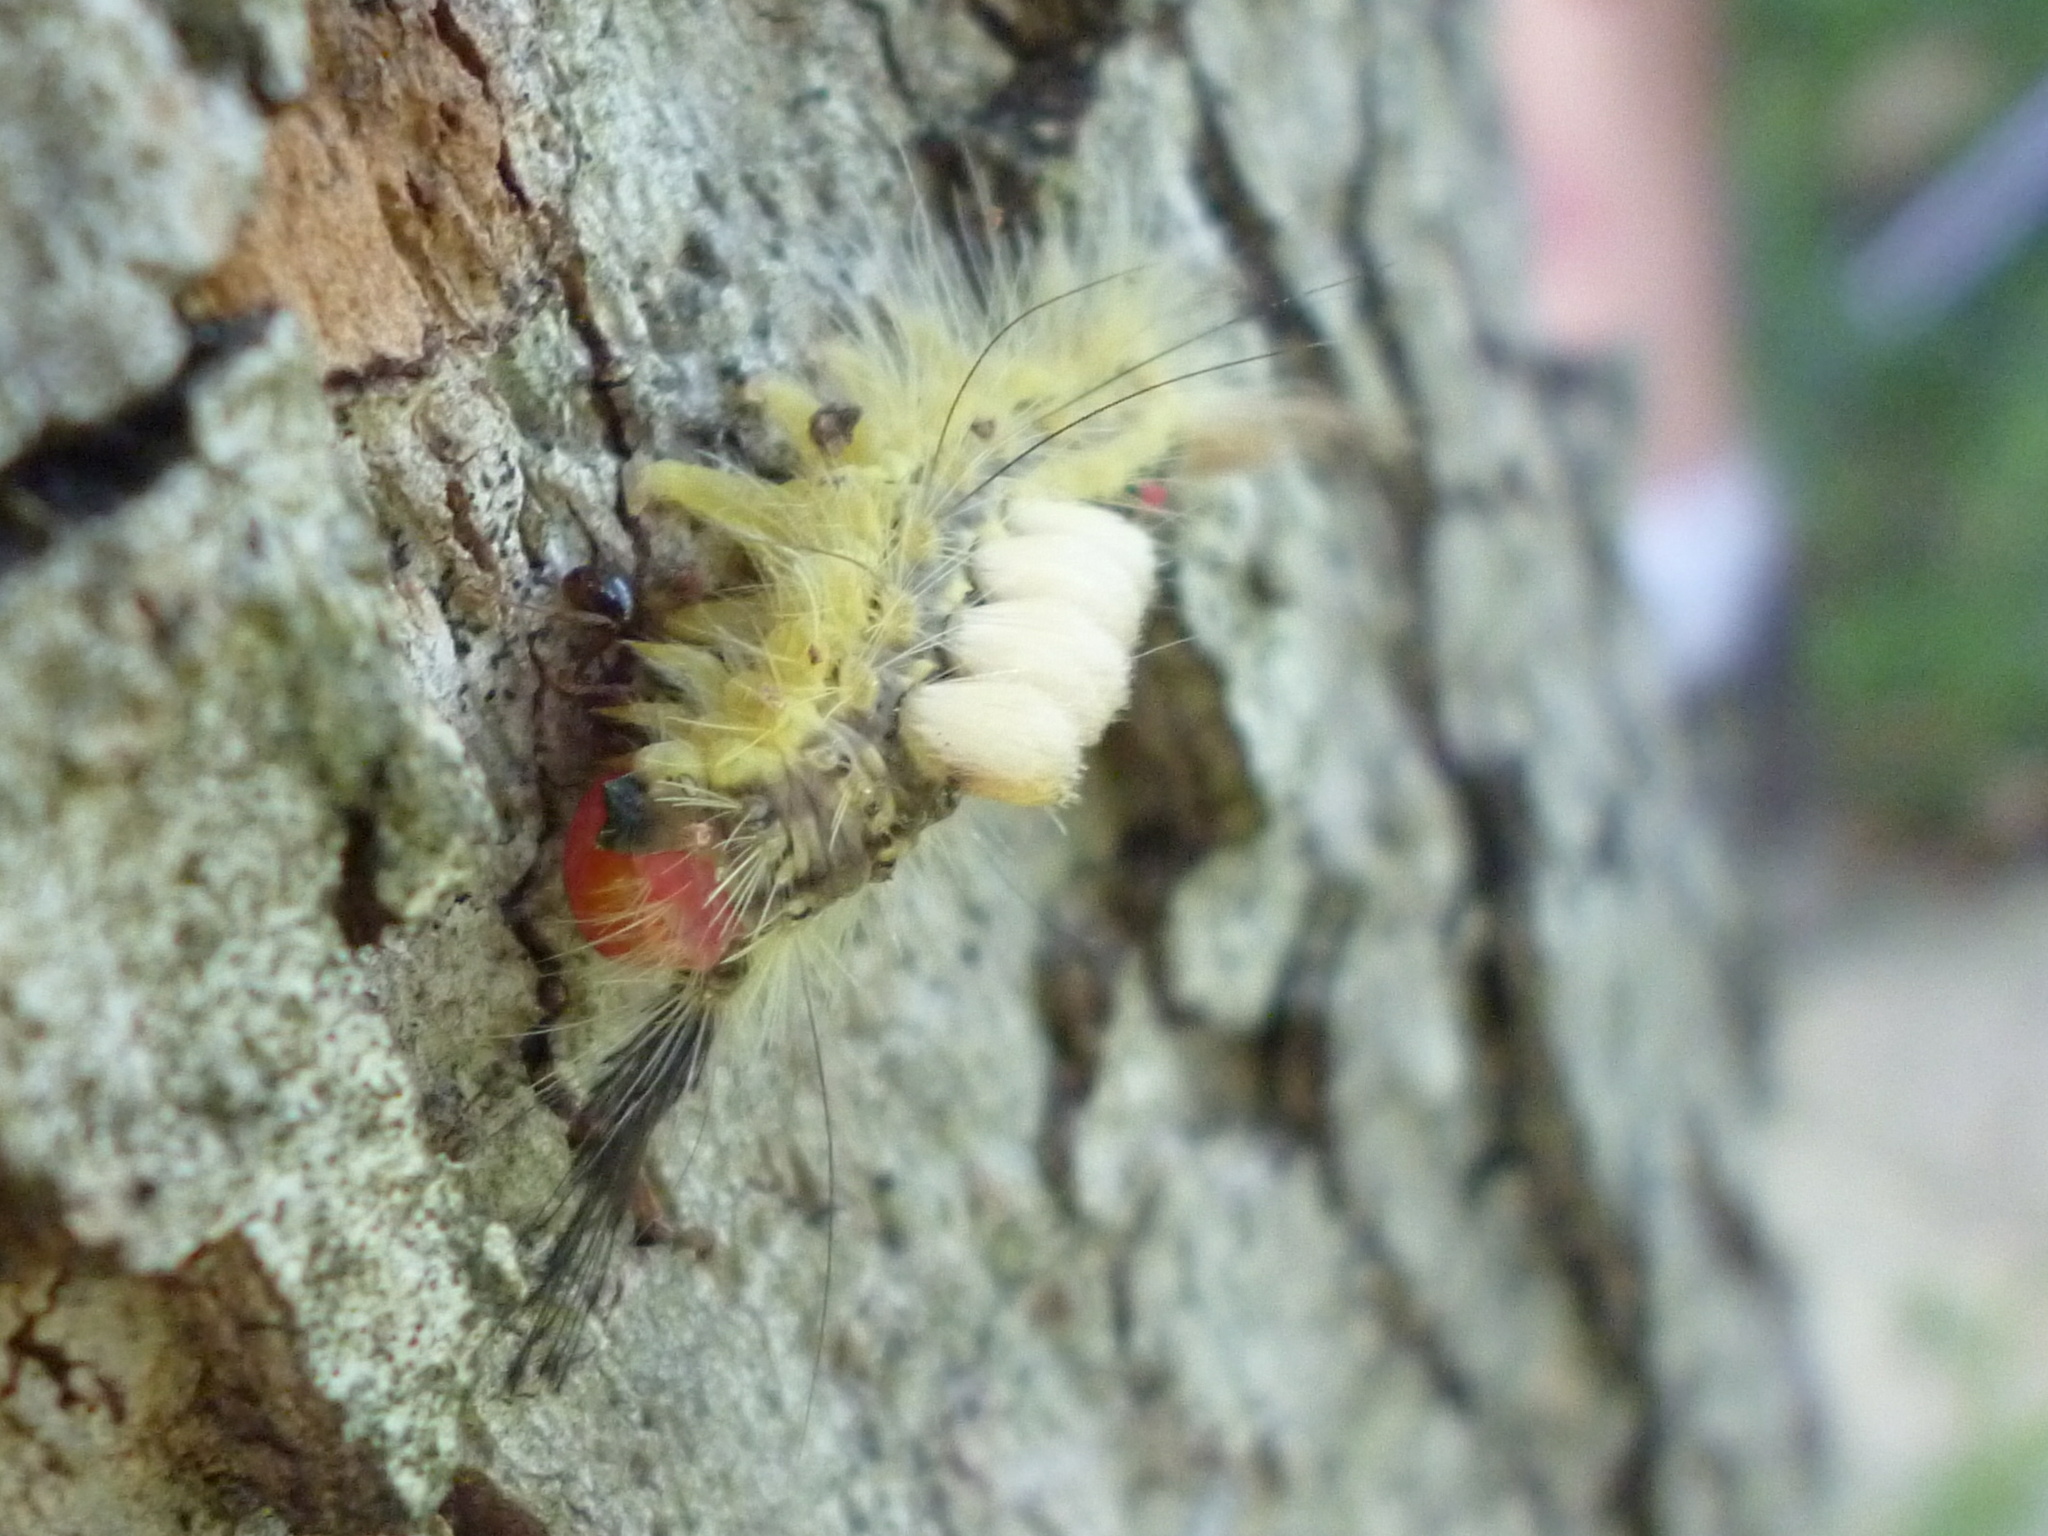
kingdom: Animalia
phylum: Arthropoda
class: Insecta
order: Lepidoptera
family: Erebidae
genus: Orgyia
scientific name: Orgyia leucostigma
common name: White-marked tussock moth
